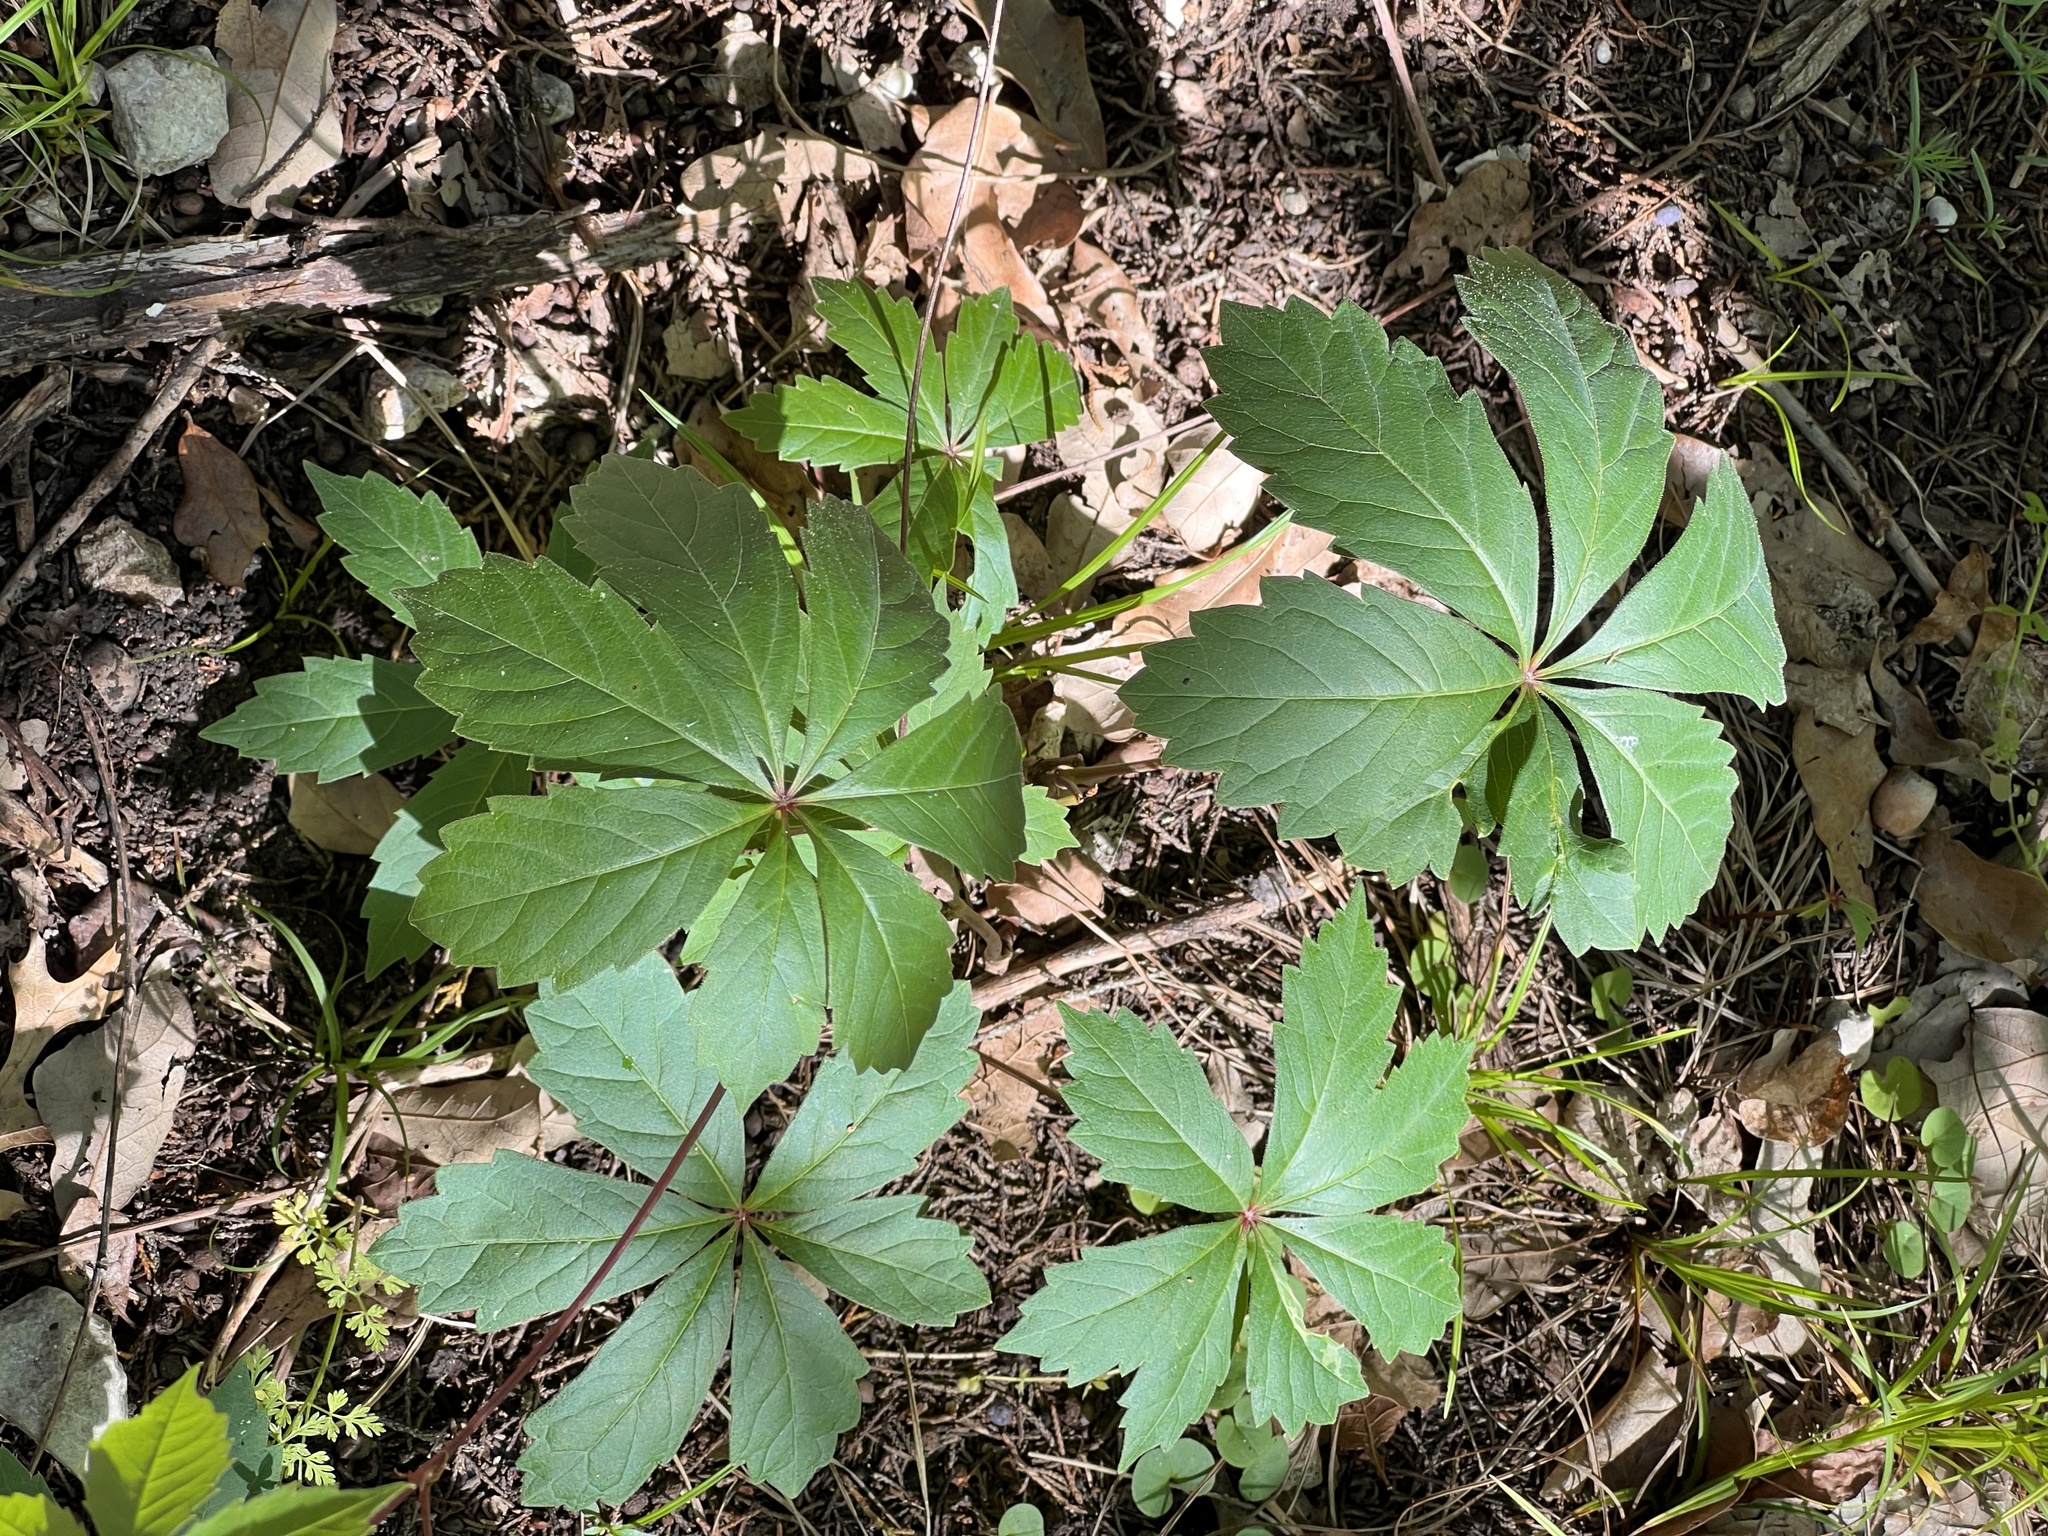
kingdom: Plantae
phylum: Tracheophyta
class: Magnoliopsida
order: Vitales
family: Vitaceae
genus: Parthenocissus
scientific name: Parthenocissus heptaphylla
